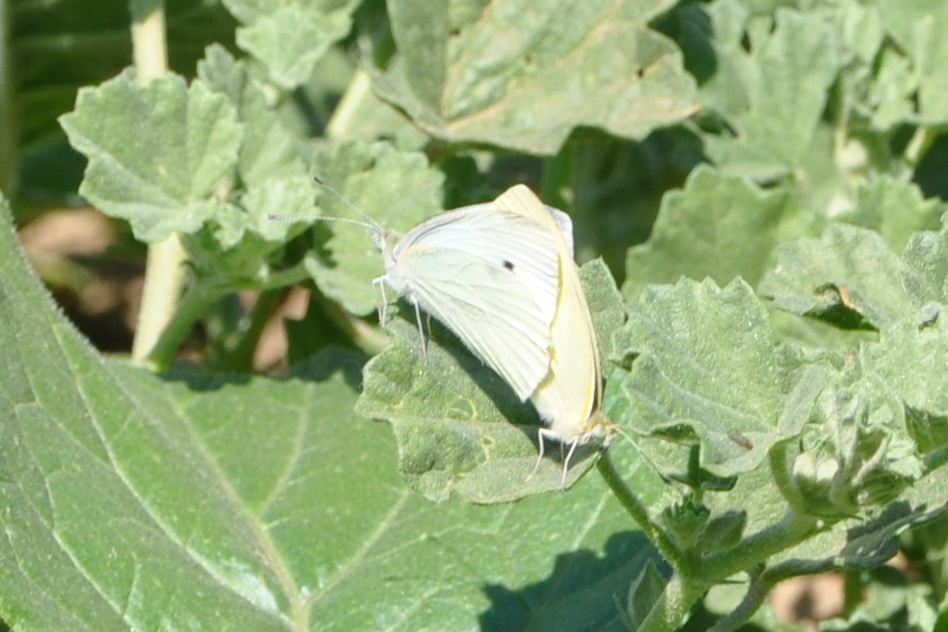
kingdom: Animalia
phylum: Arthropoda
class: Insecta
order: Lepidoptera
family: Pieridae
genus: Pieris
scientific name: Pieris rapae
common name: Small white
